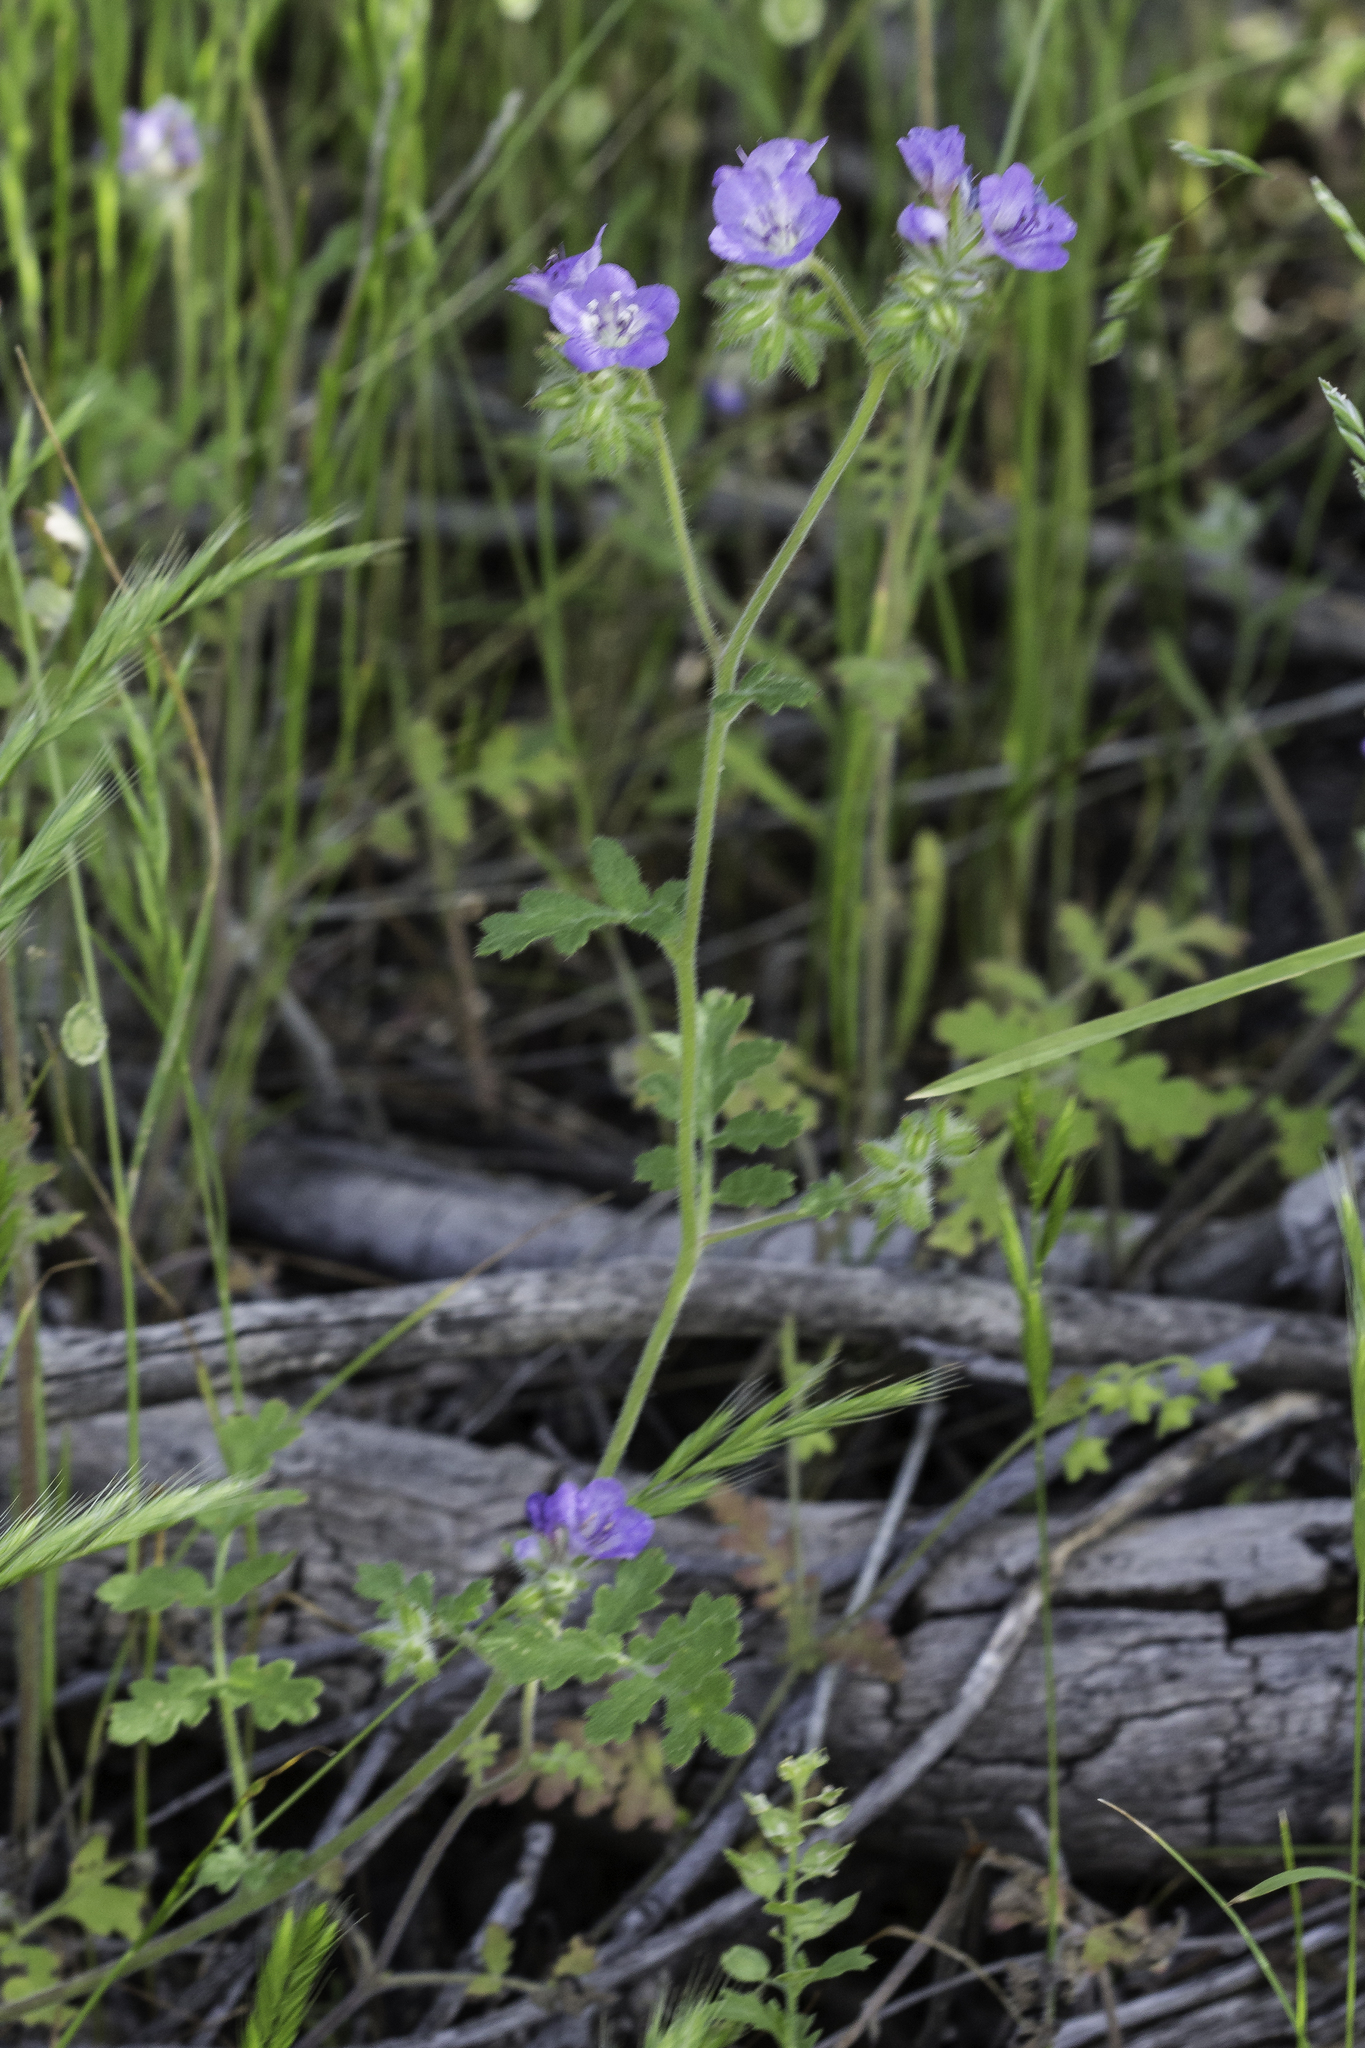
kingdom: Plantae
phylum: Tracheophyta
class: Magnoliopsida
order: Boraginales
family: Hydrophyllaceae
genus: Phacelia
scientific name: Phacelia distans
